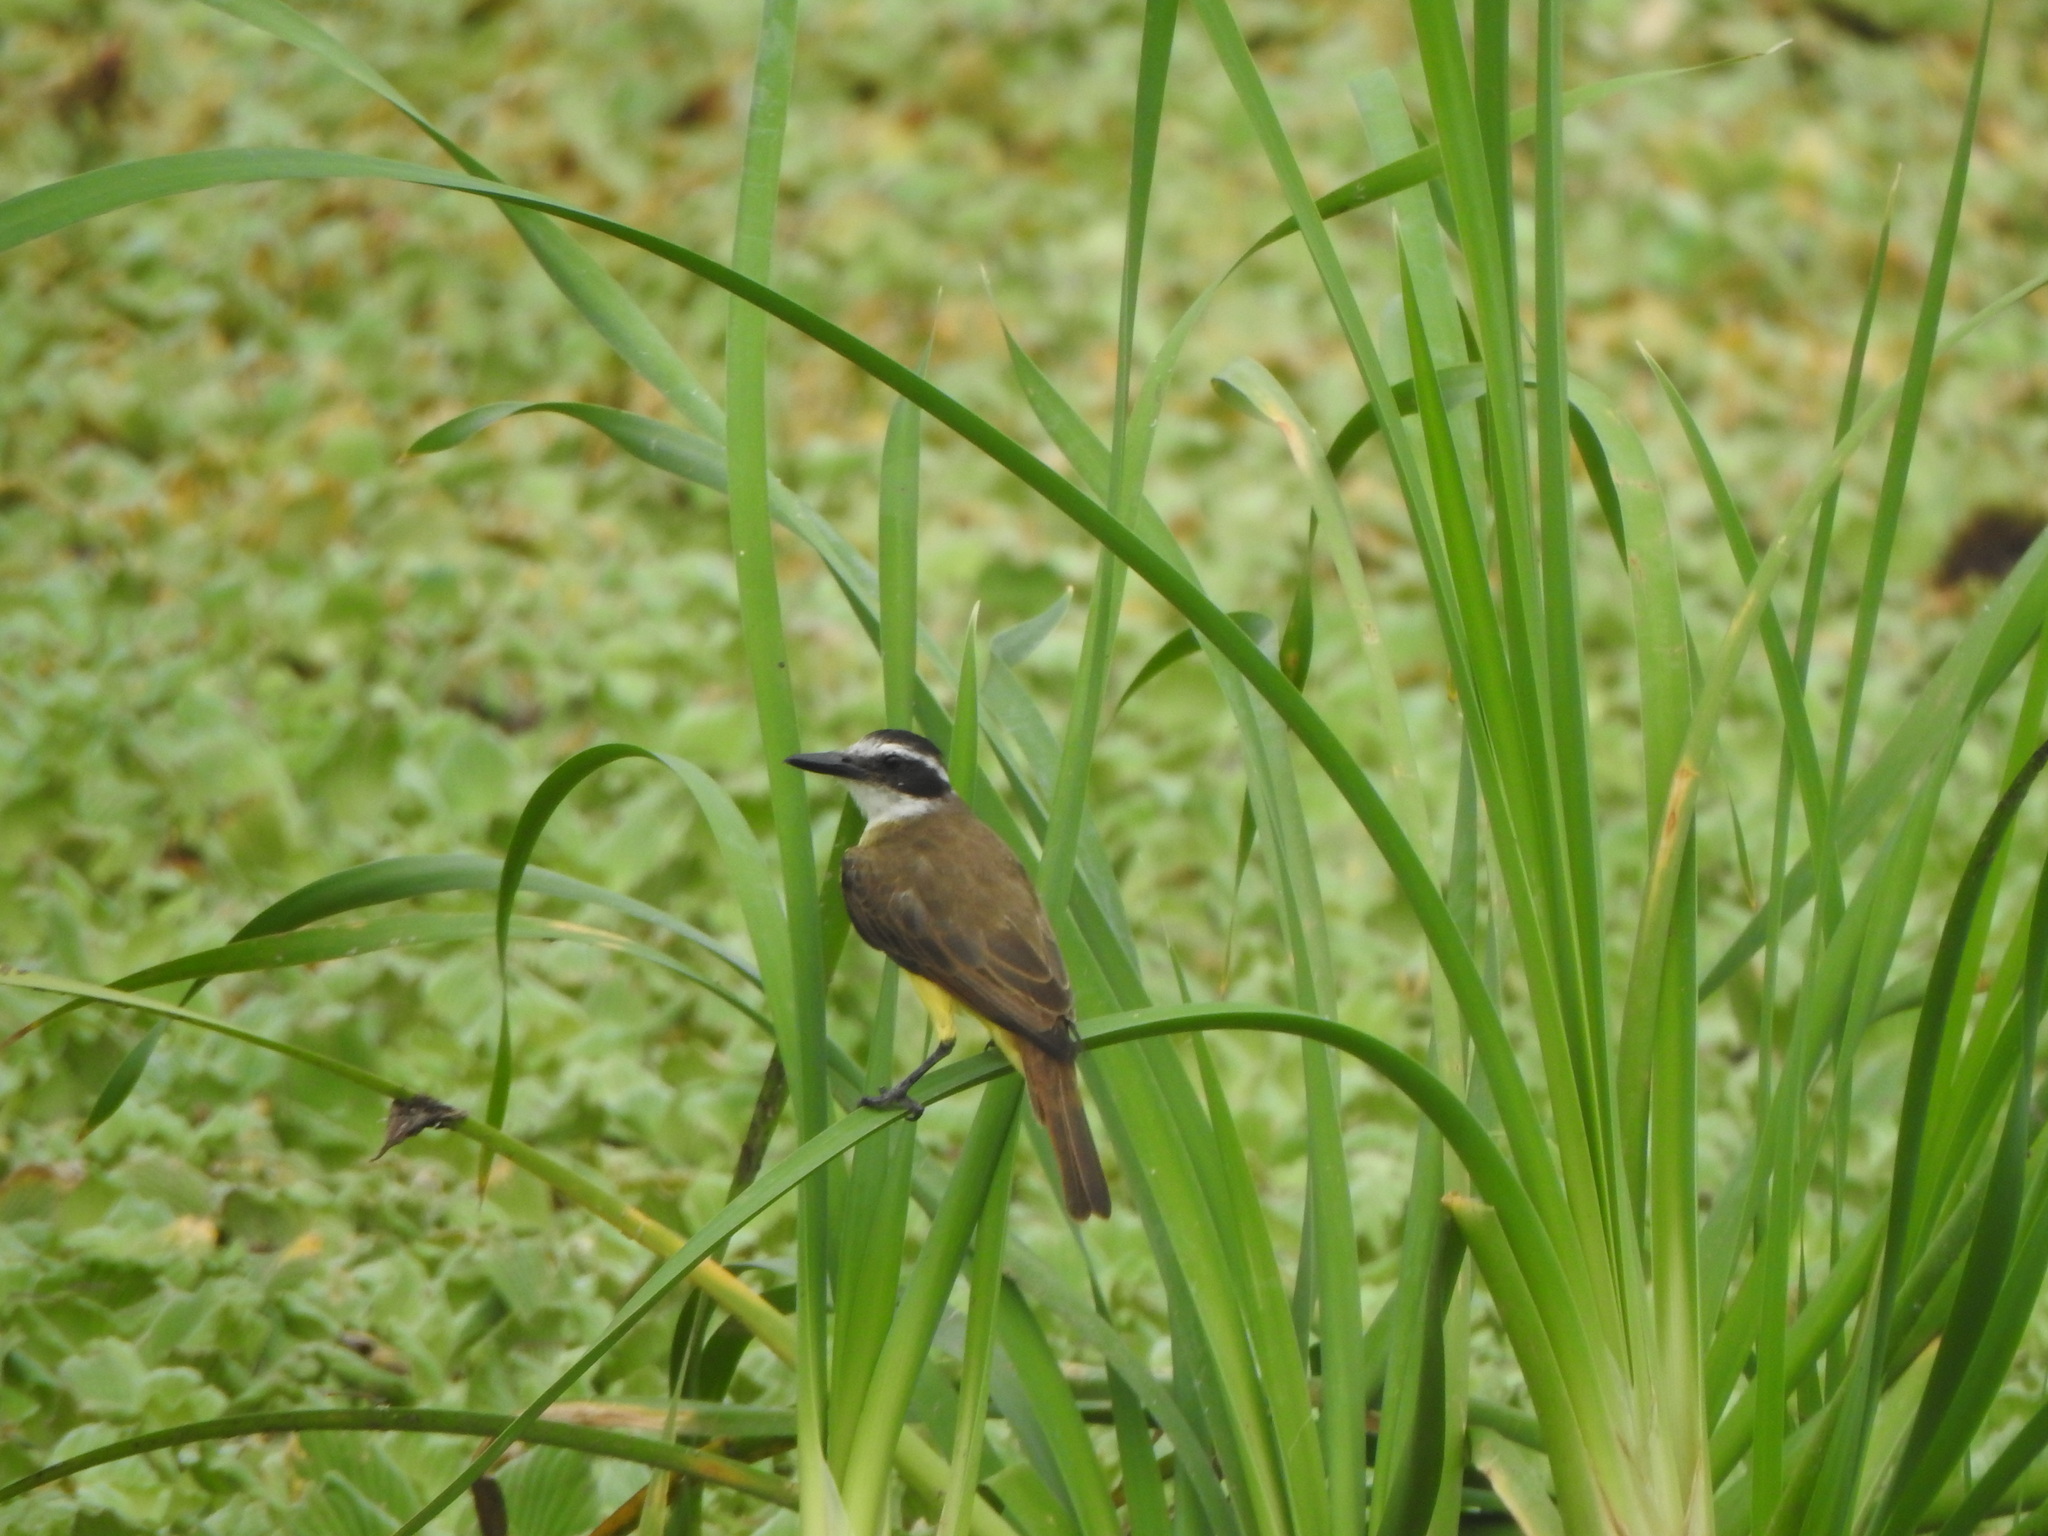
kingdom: Animalia
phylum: Chordata
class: Aves
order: Passeriformes
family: Tyrannidae
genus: Pitangus
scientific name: Pitangus sulphuratus
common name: Great kiskadee
